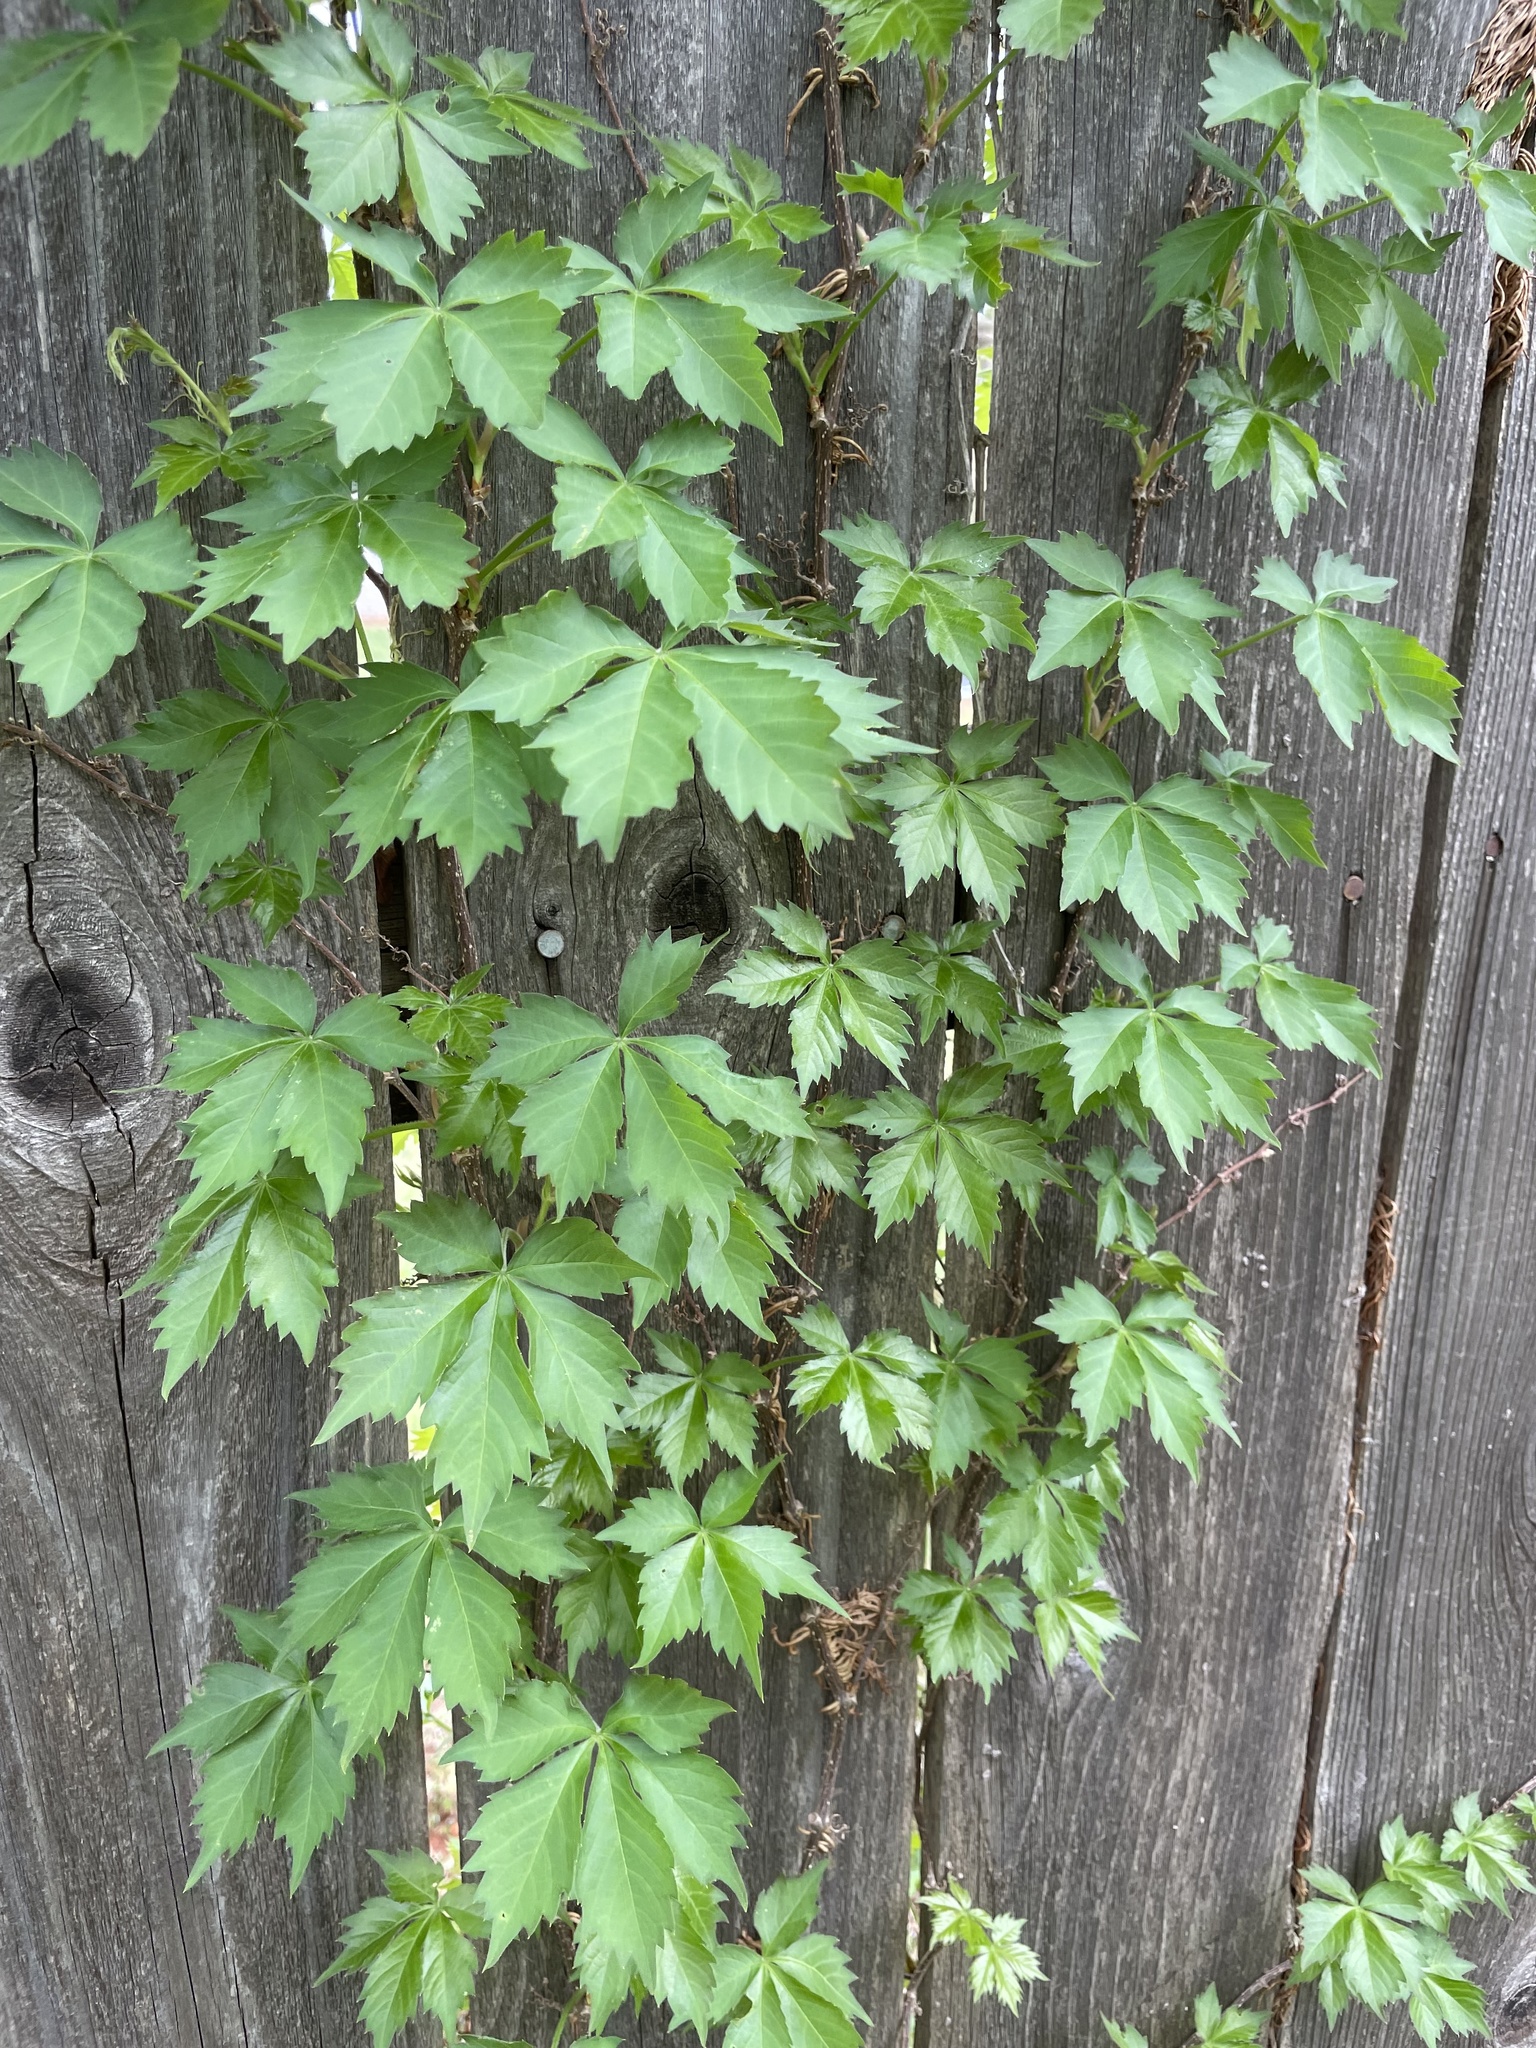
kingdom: Plantae
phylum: Tracheophyta
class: Magnoliopsida
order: Vitales
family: Vitaceae
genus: Parthenocissus
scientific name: Parthenocissus quinquefolia
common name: Virginia-creeper
